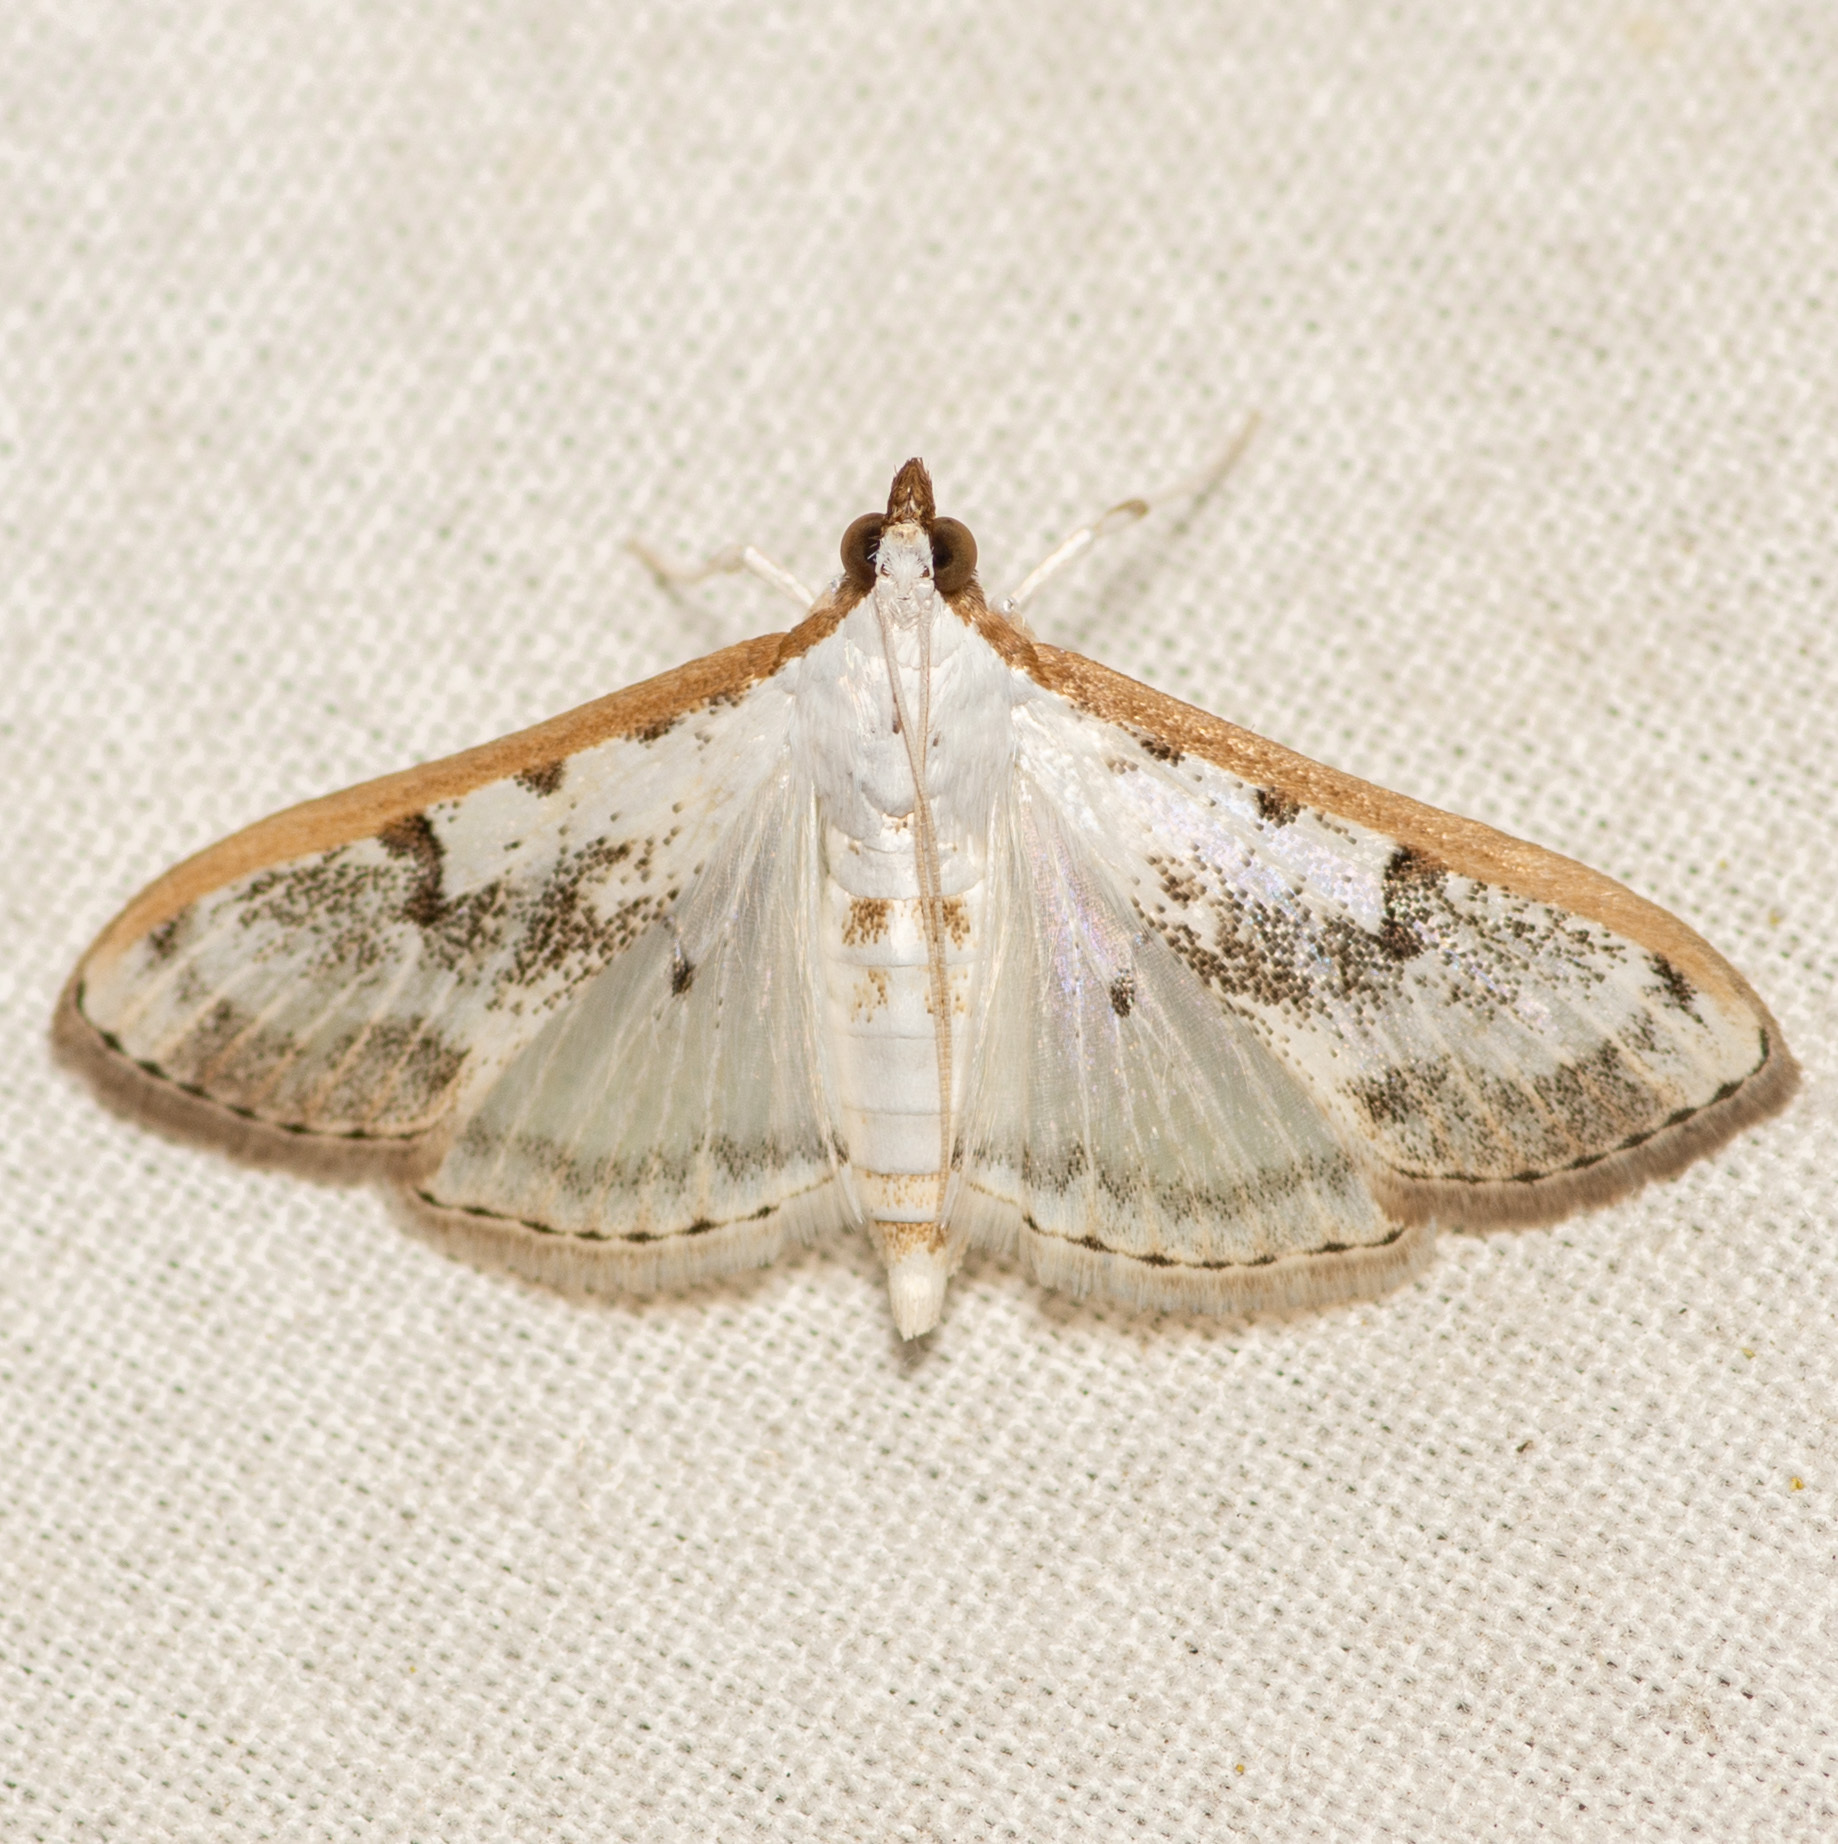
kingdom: Animalia
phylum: Arthropoda
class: Insecta
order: Lepidoptera
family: Crambidae
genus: Palpita
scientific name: Palpita gracilalis
